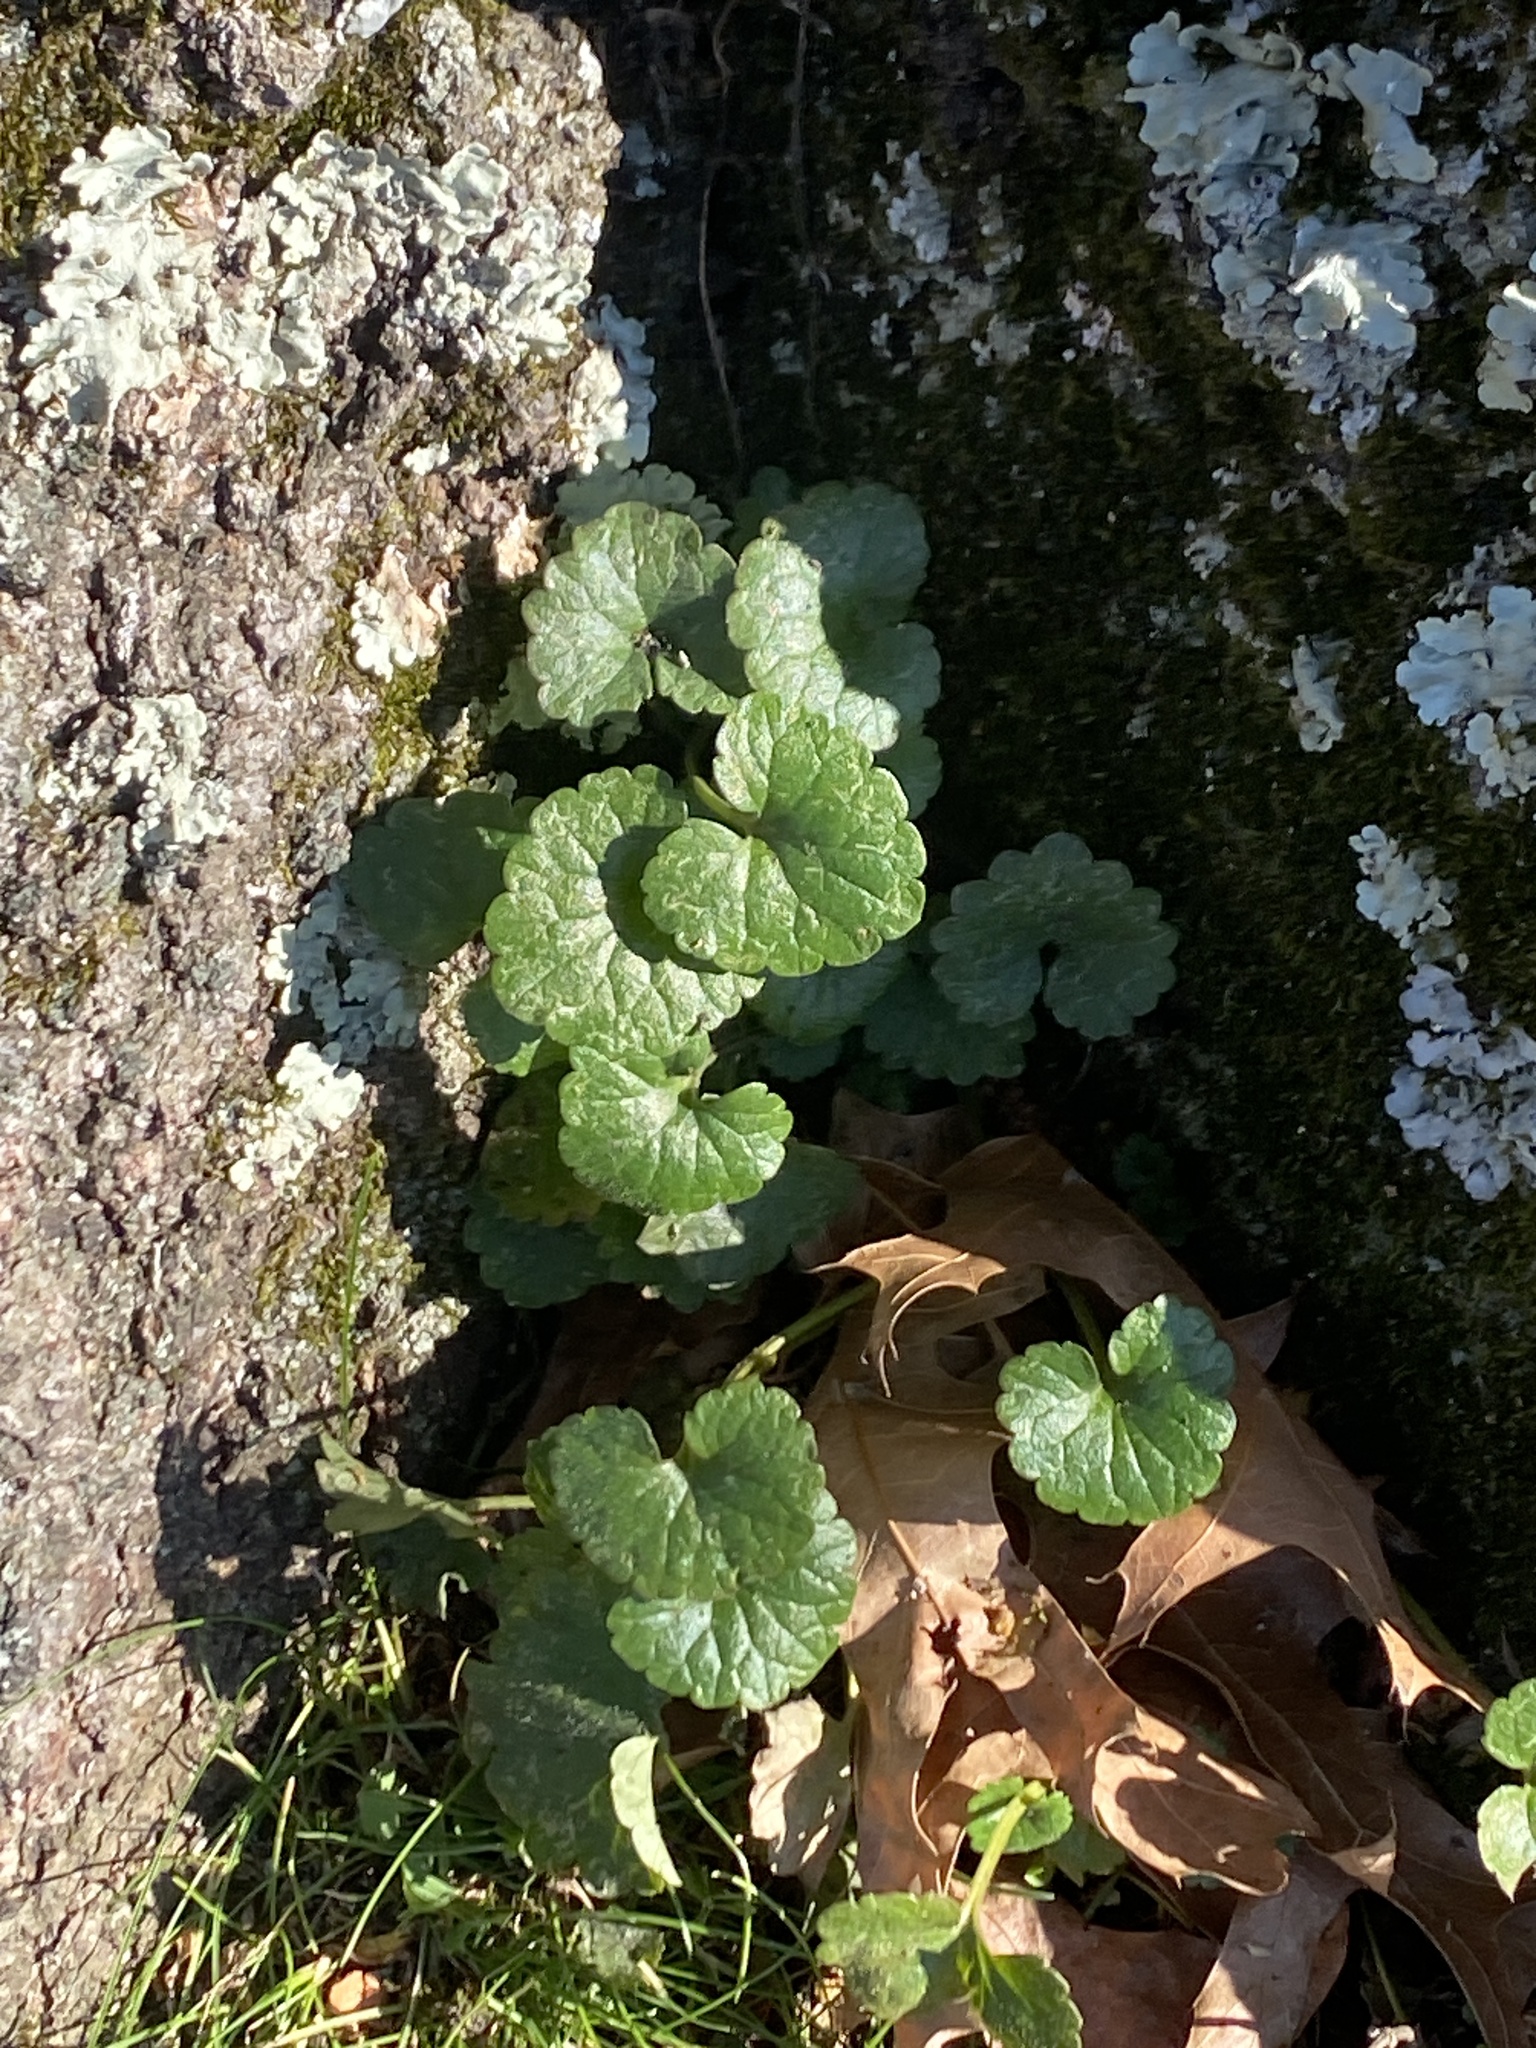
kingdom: Plantae
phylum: Tracheophyta
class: Magnoliopsida
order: Lamiales
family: Lamiaceae
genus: Glechoma
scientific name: Glechoma hederacea
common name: Ground ivy
